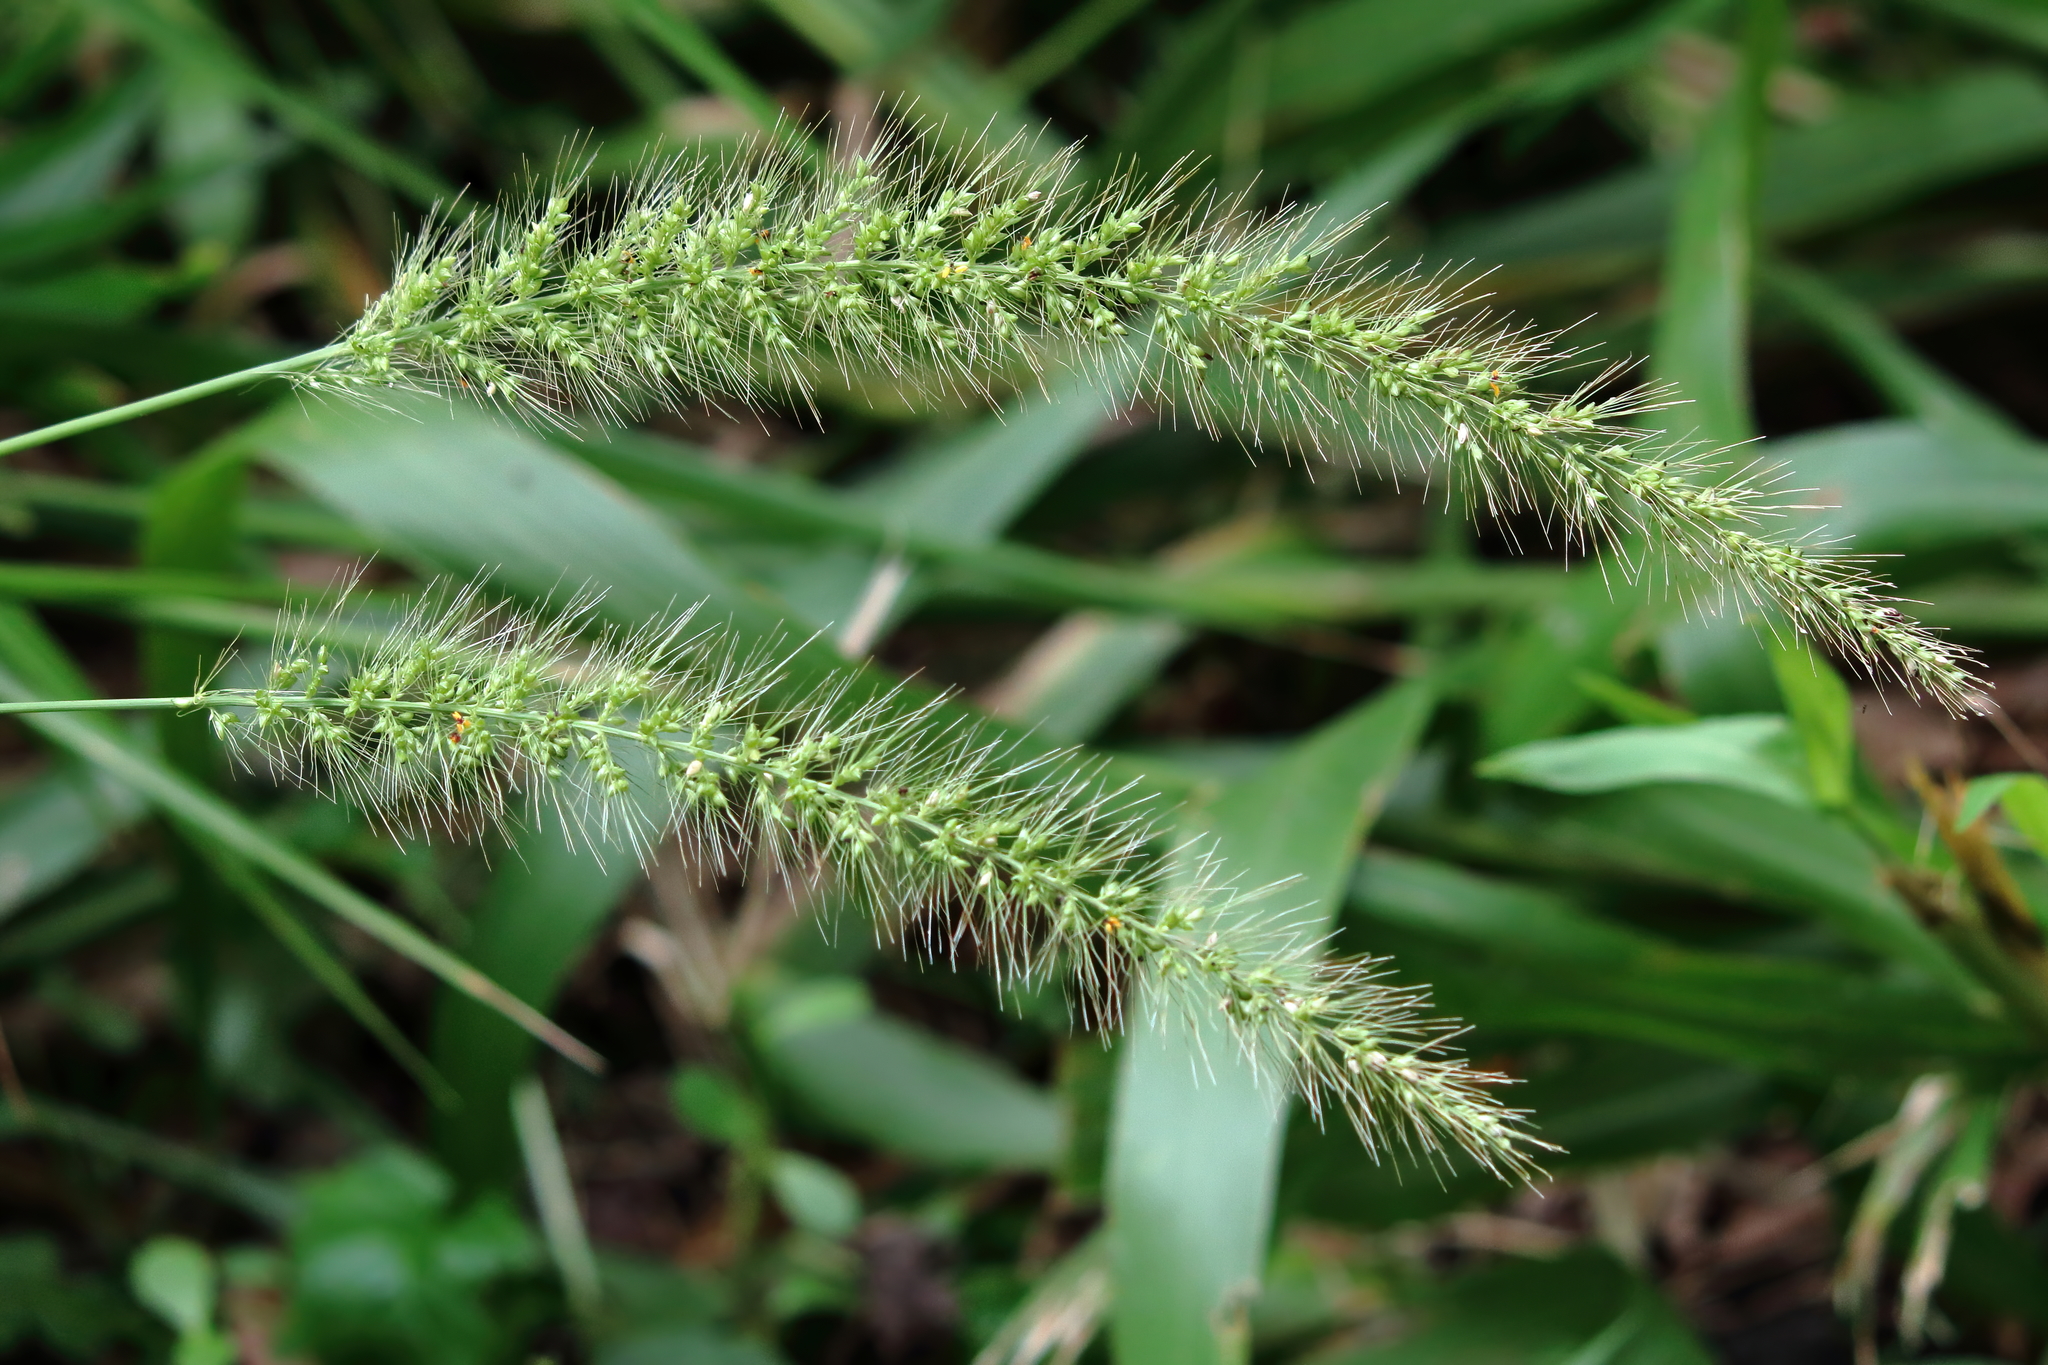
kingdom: Plantae
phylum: Tracheophyta
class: Liliopsida
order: Poales
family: Poaceae
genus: Setaria
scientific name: Setaria macrosperma
